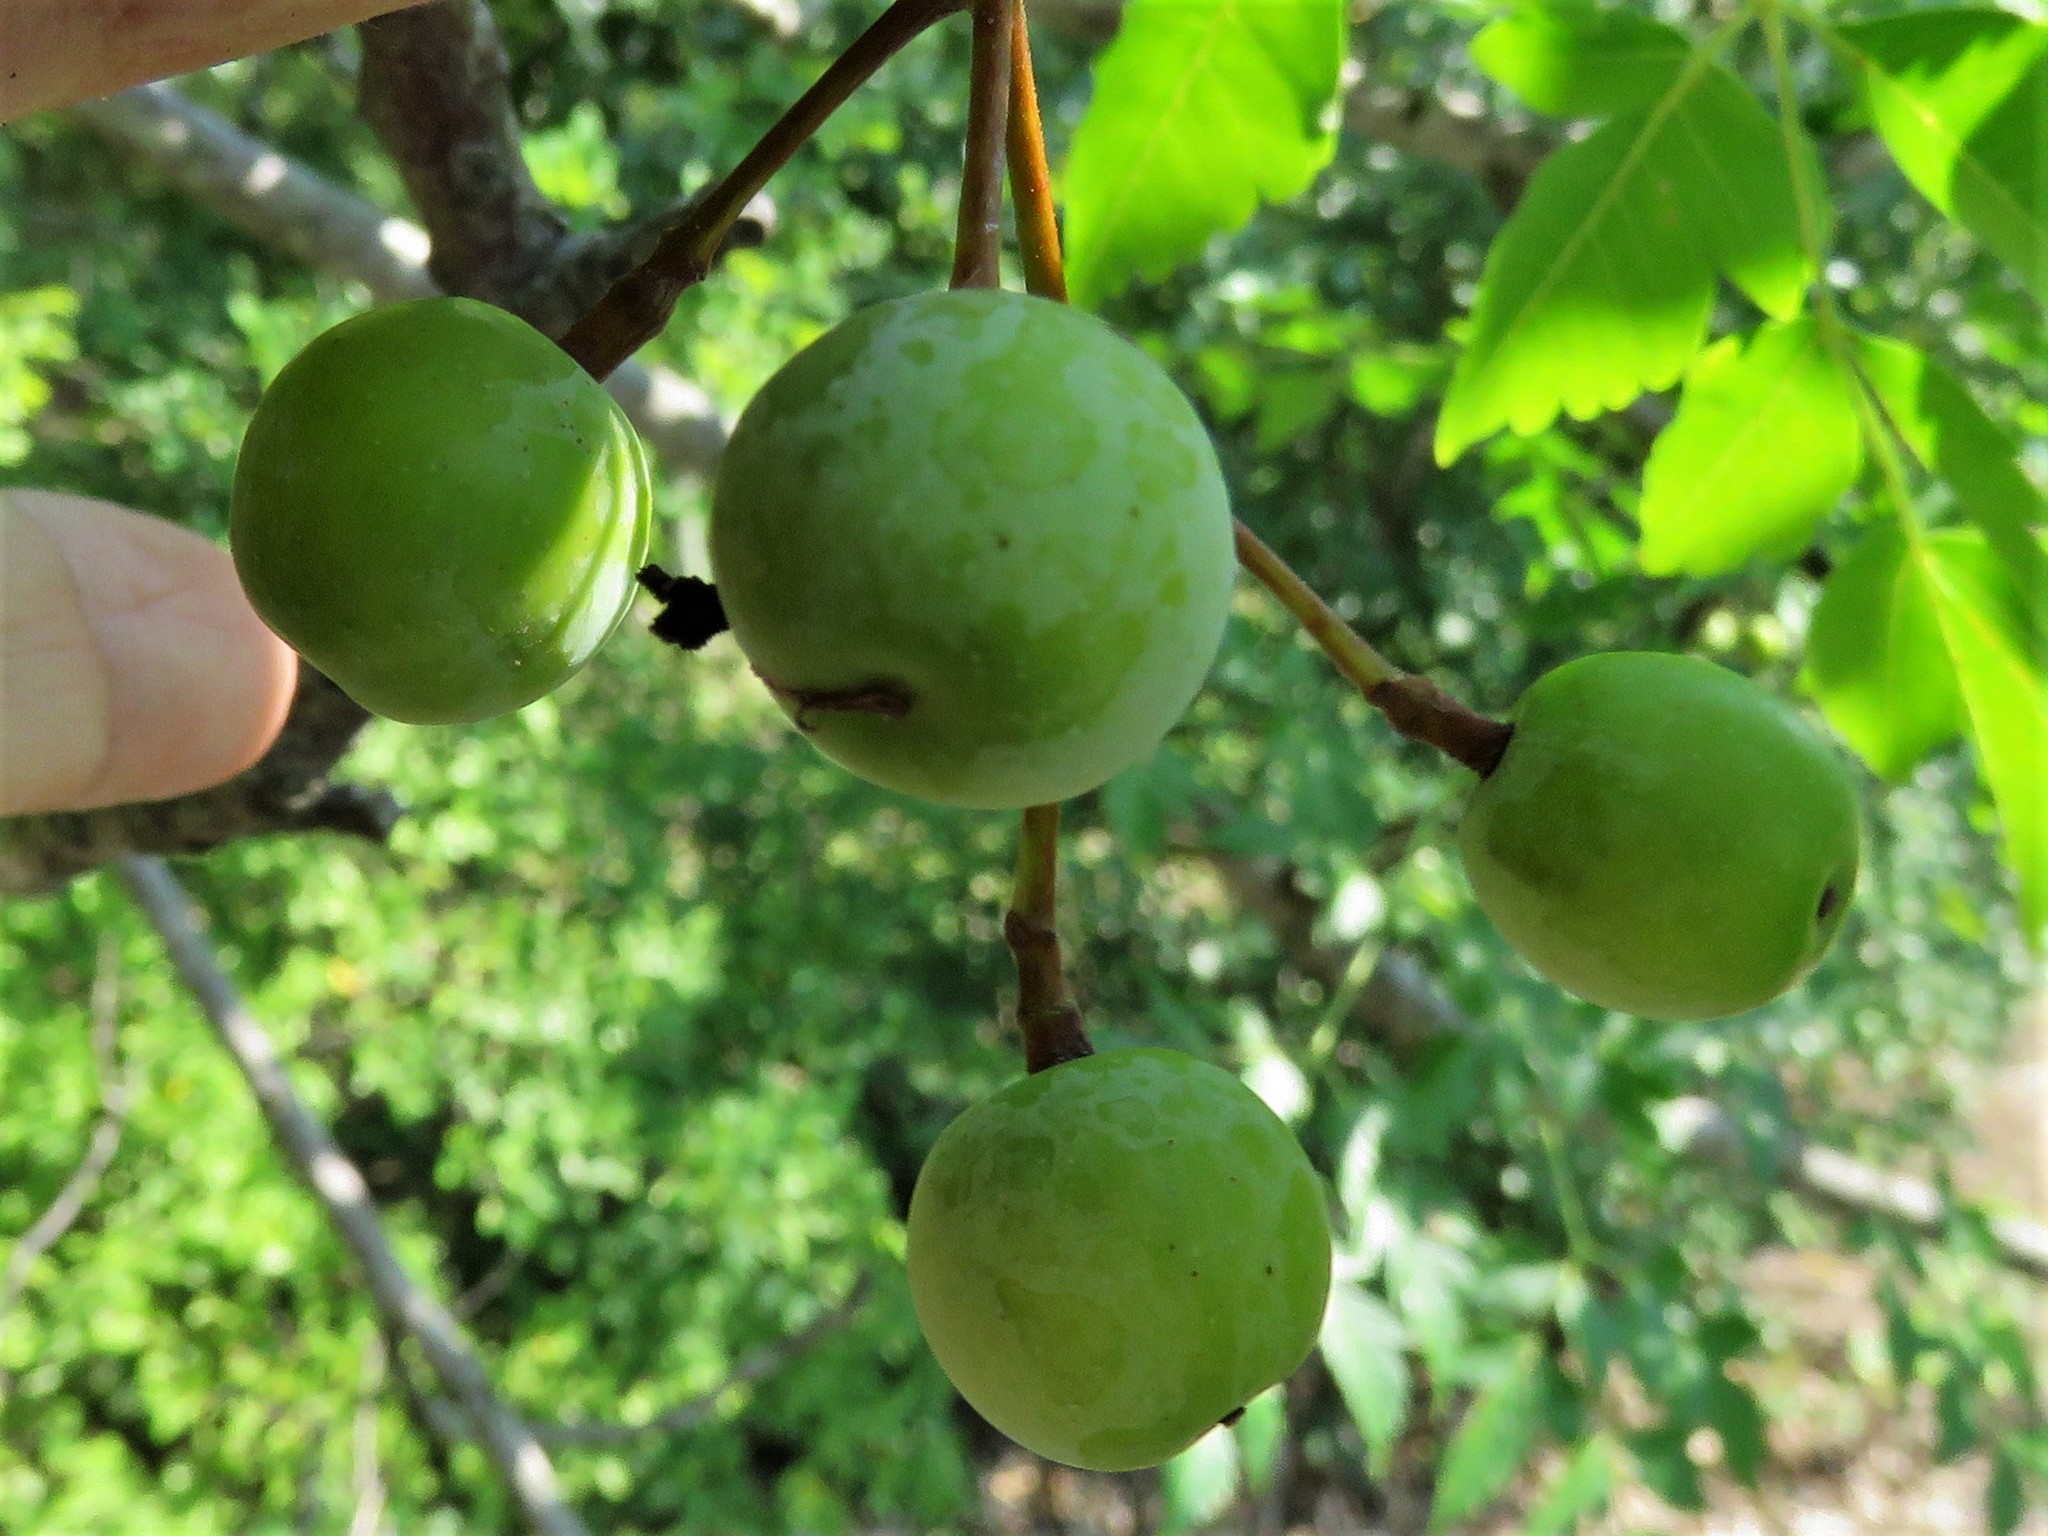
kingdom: Plantae
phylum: Tracheophyta
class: Magnoliopsida
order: Sapindales
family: Meliaceae
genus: Melia
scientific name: Melia azedarach
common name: Chinaberrytree
